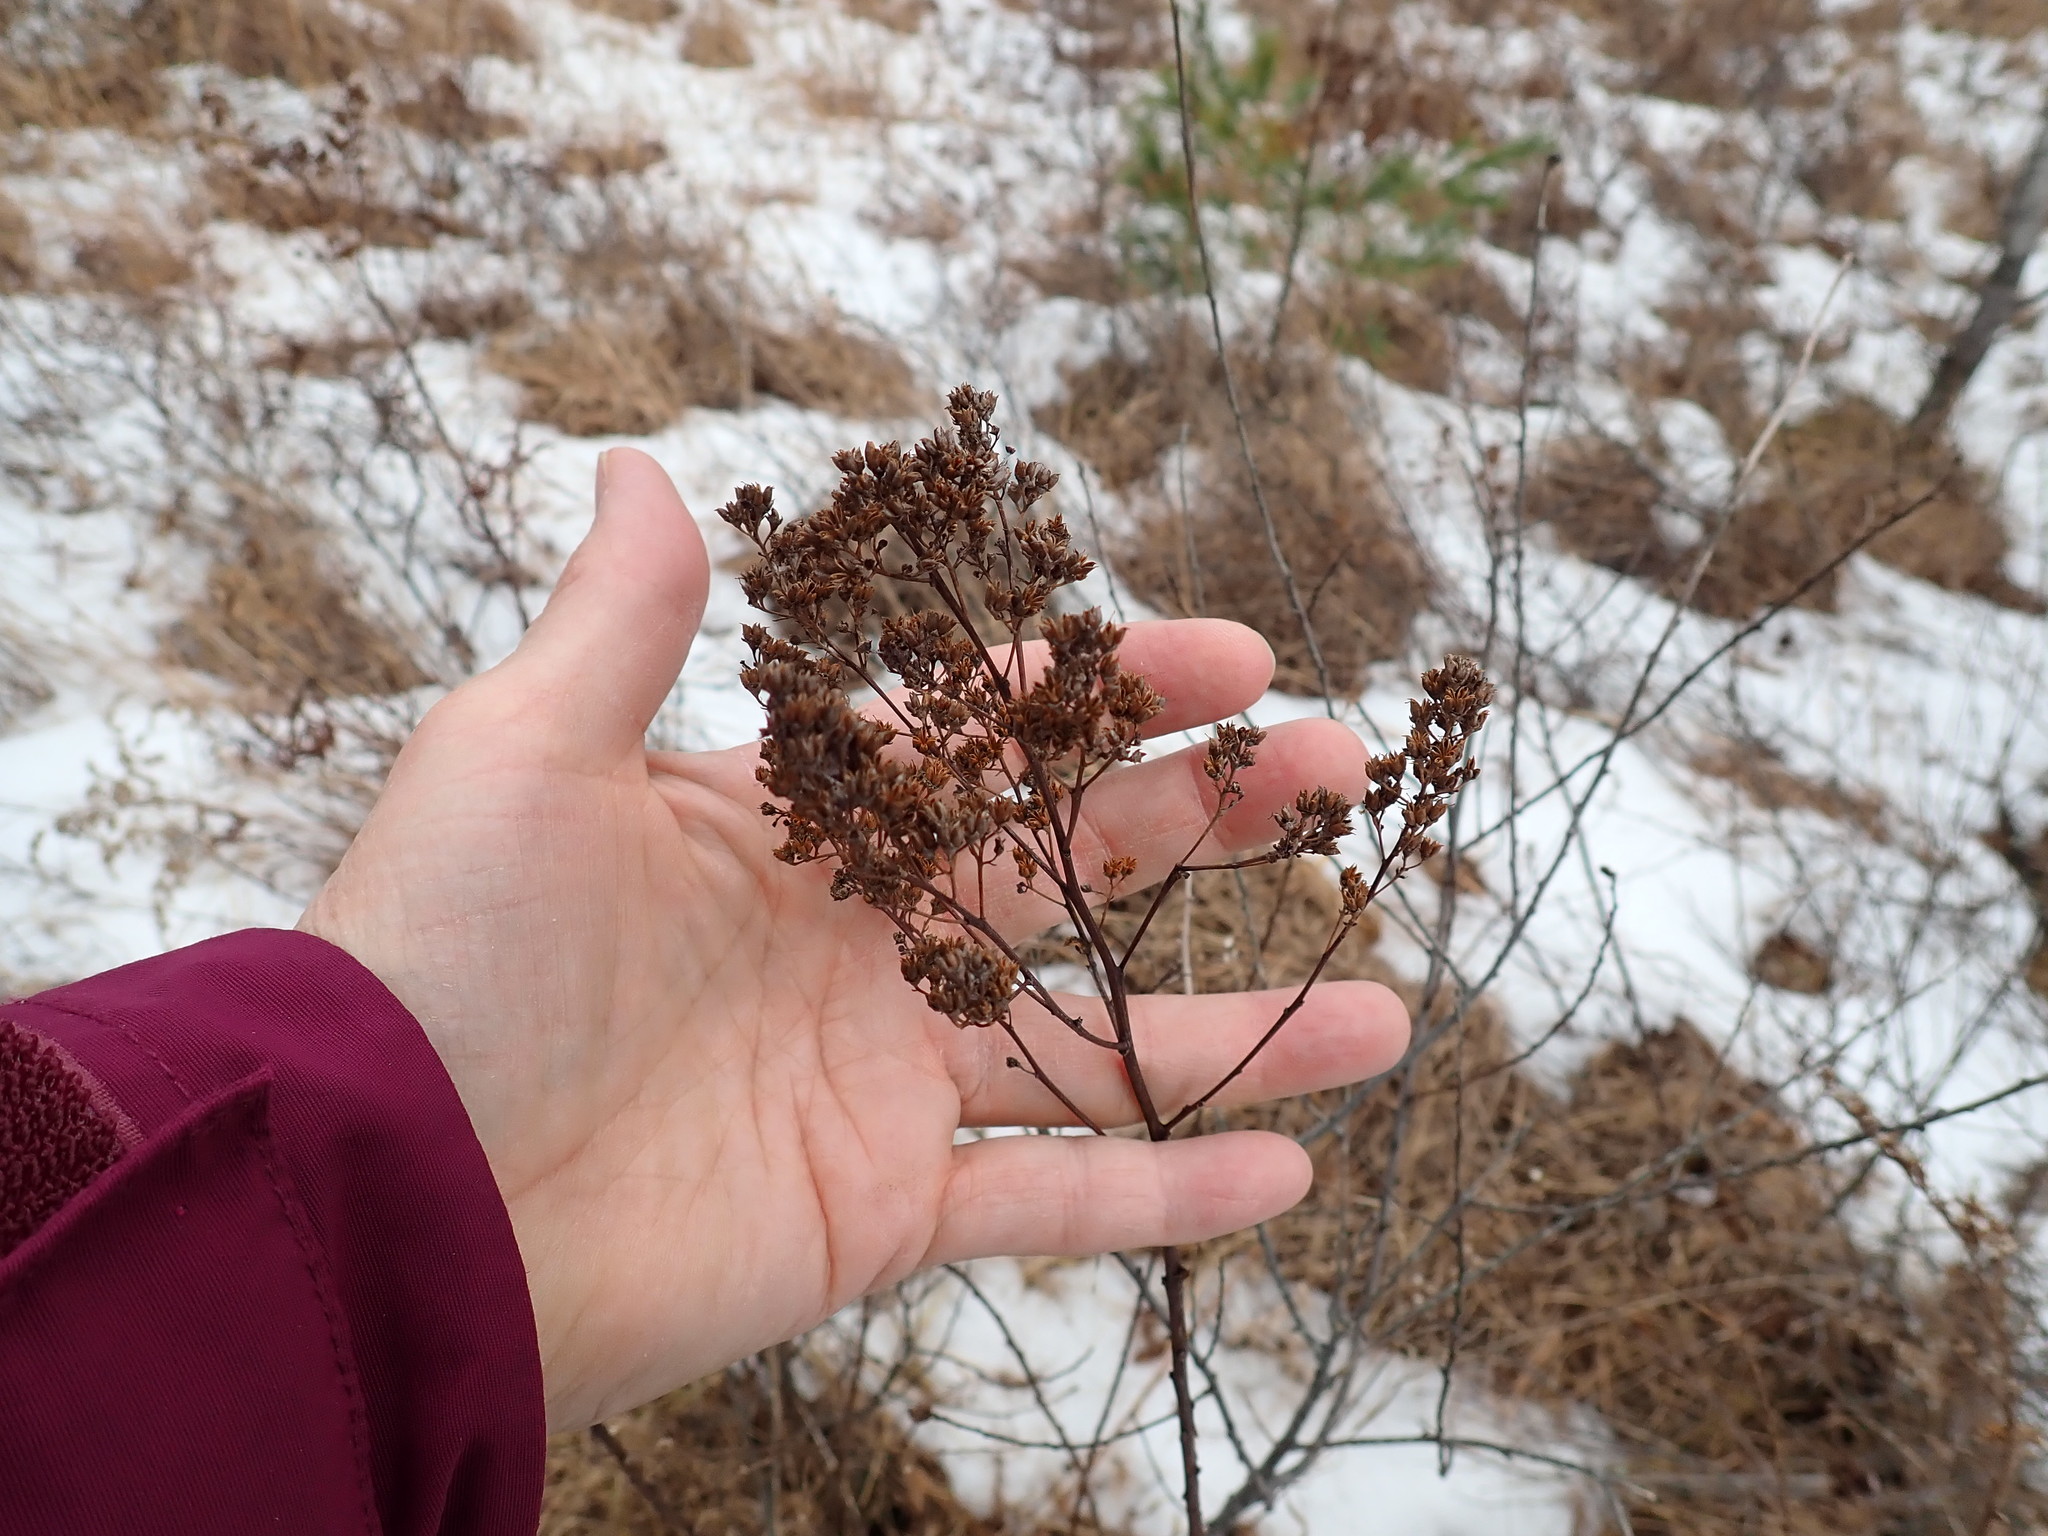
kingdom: Plantae
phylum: Tracheophyta
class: Magnoliopsida
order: Rosales
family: Rosaceae
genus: Spiraea
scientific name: Spiraea alba
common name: Pale bridewort
